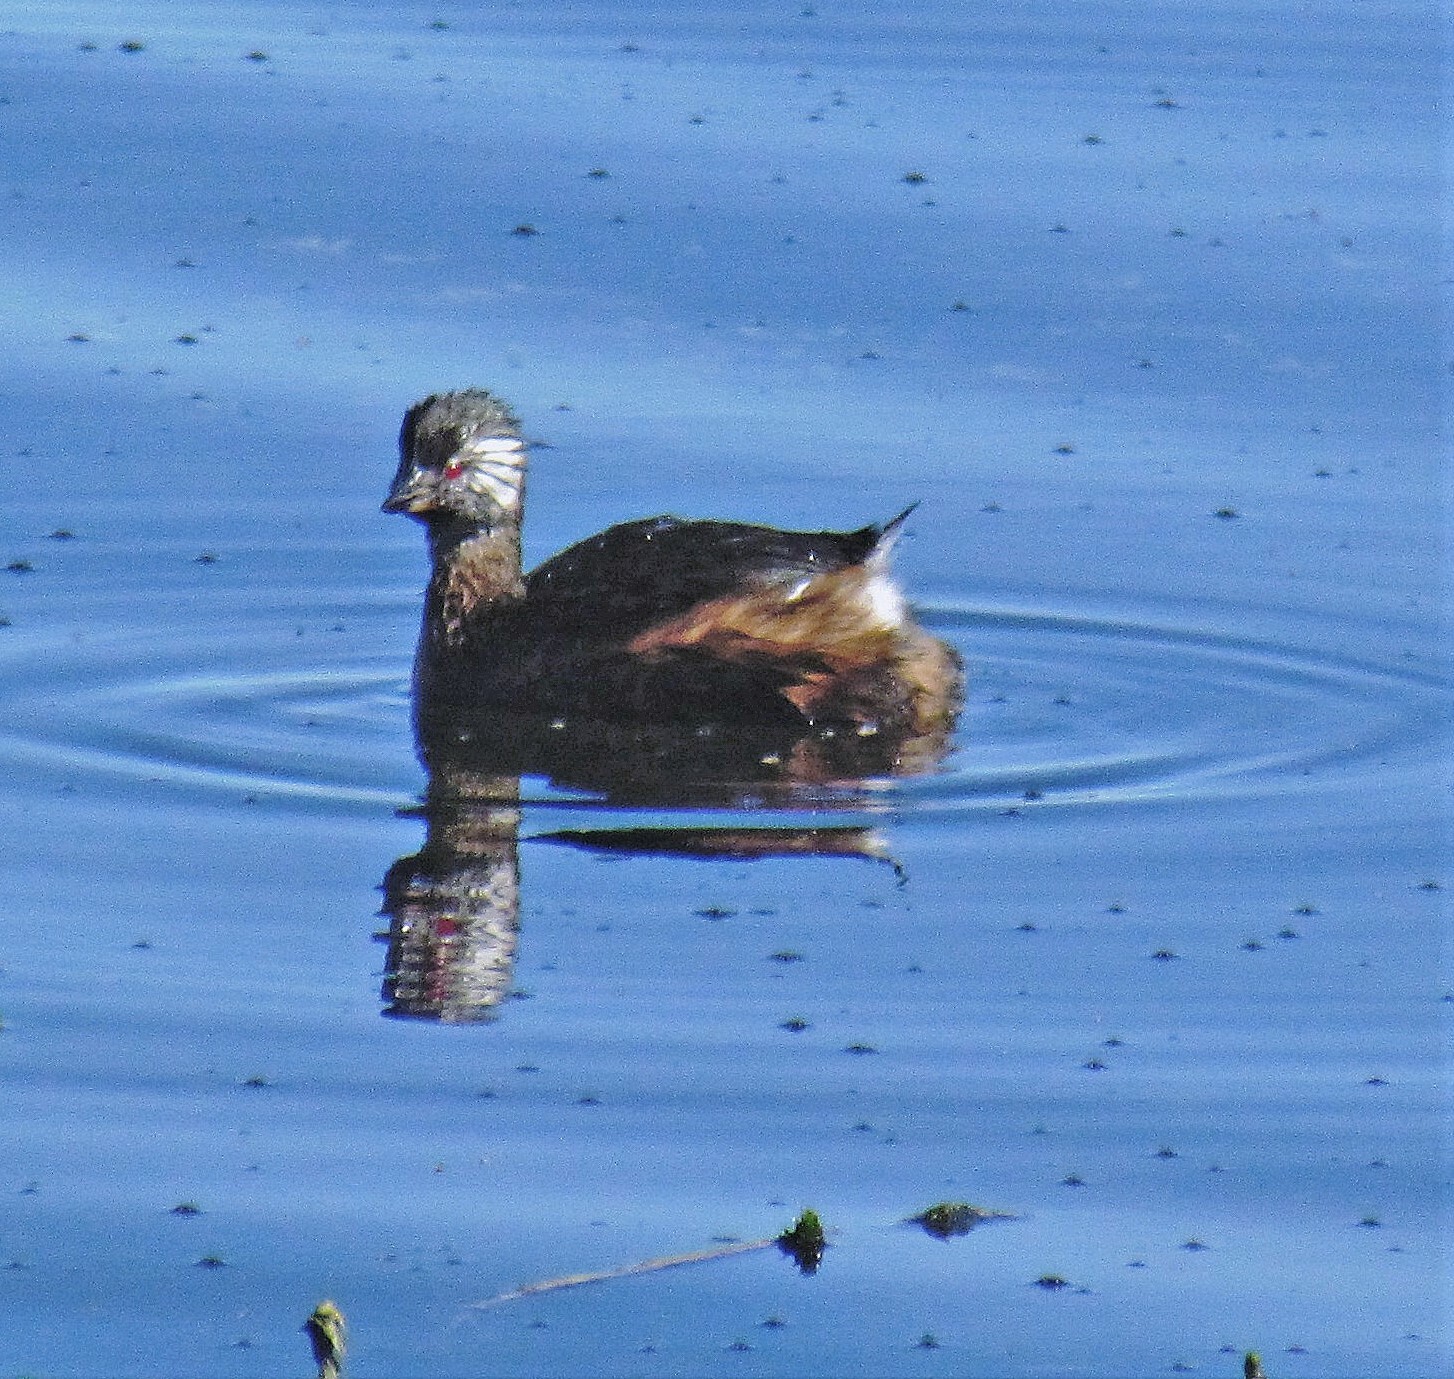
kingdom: Animalia
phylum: Chordata
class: Aves
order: Podicipediformes
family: Podicipedidae
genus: Rollandia
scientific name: Rollandia rolland
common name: White-tufted grebe
